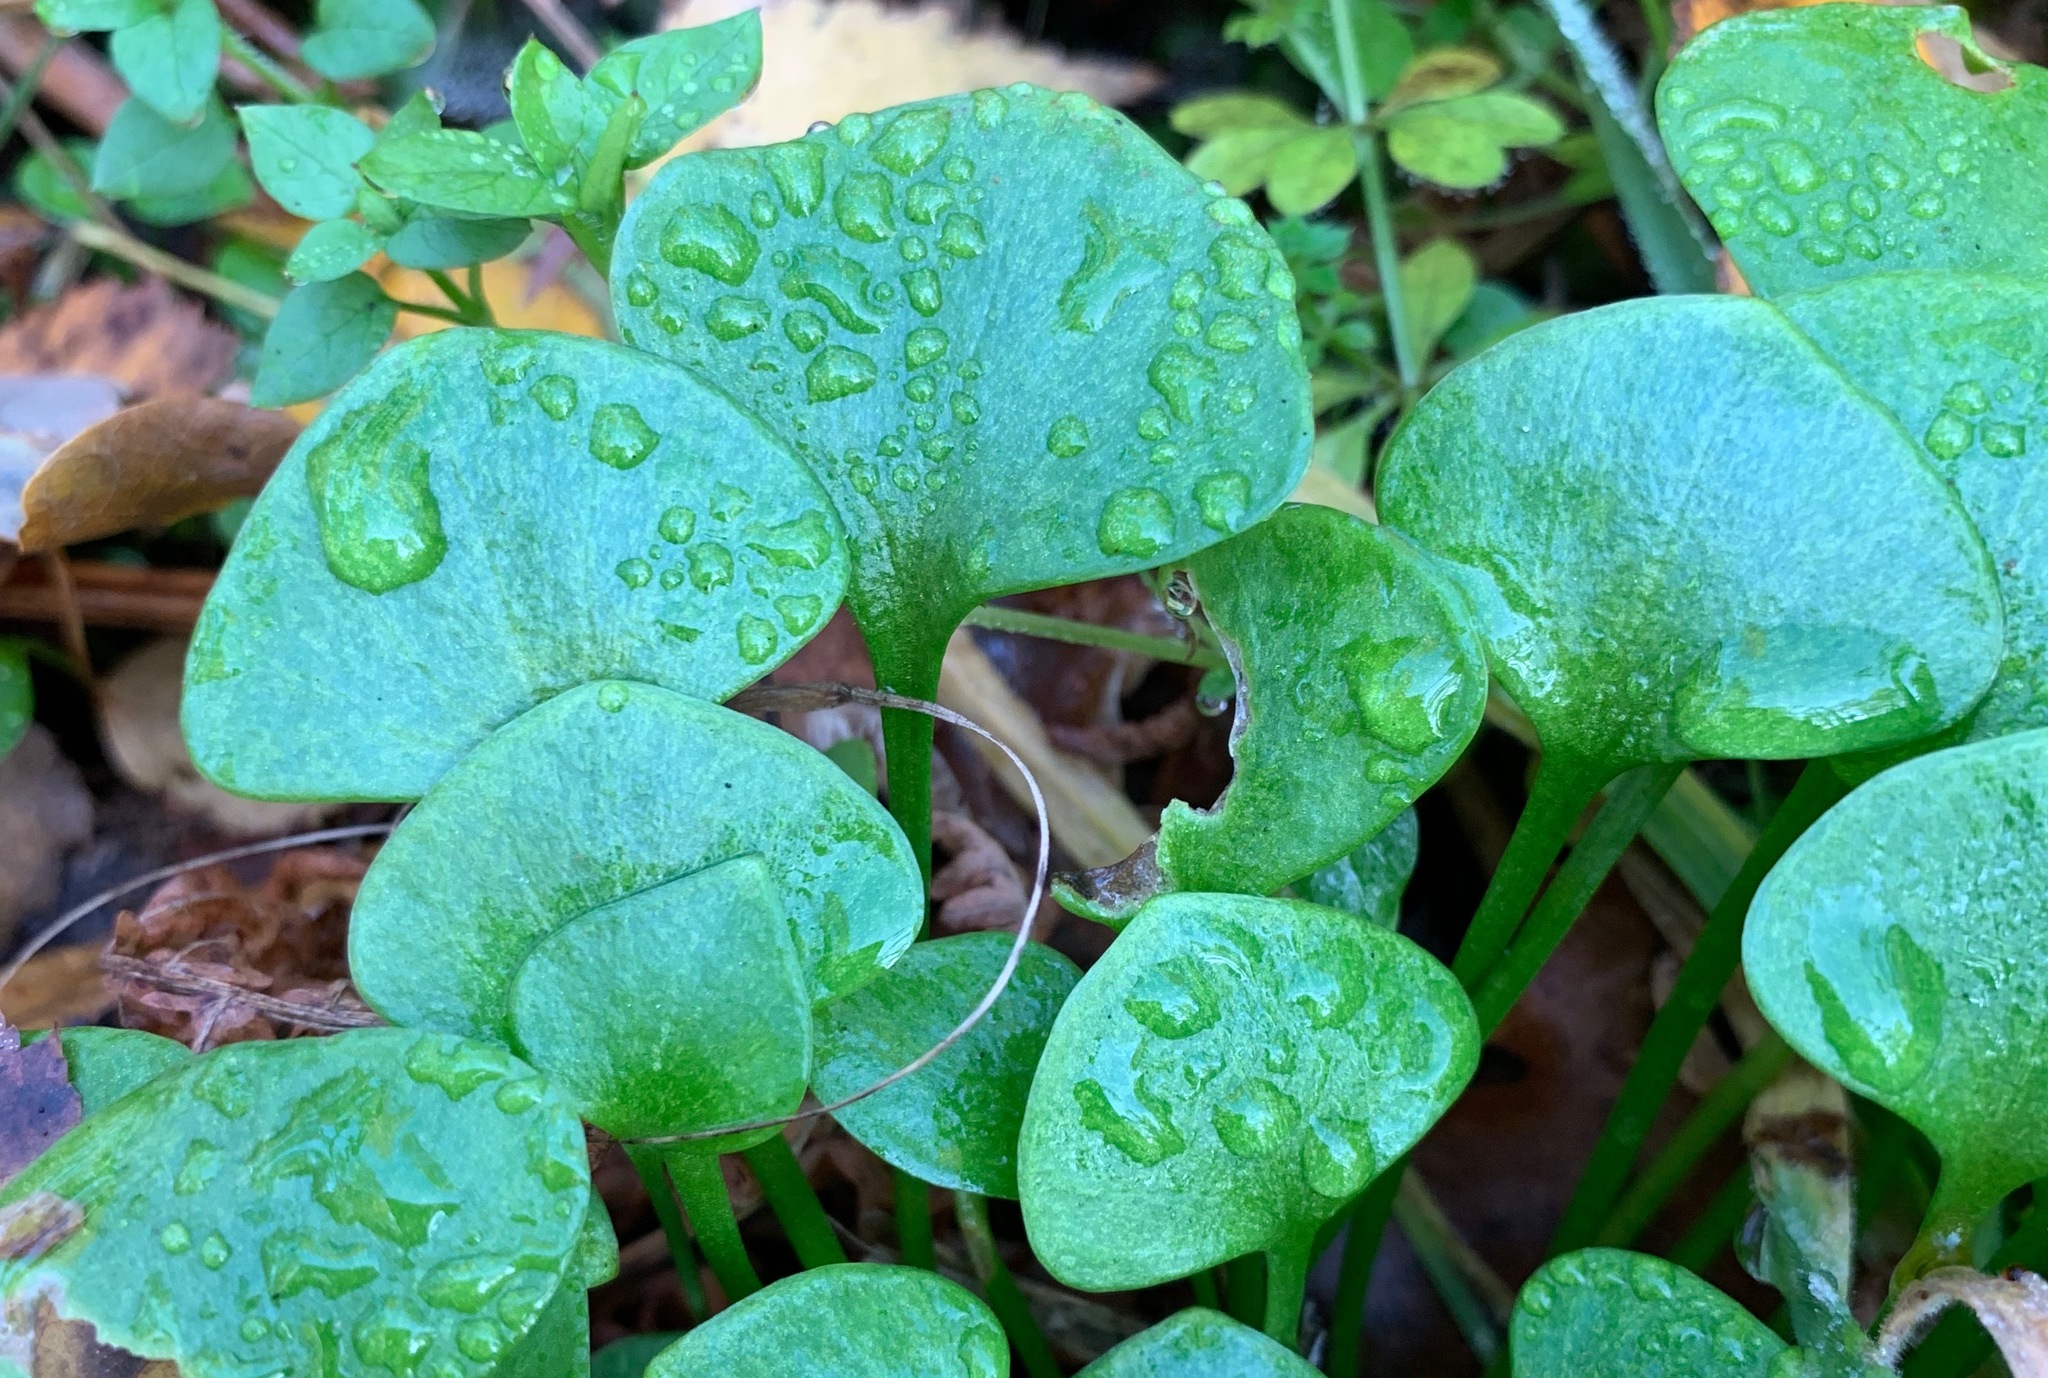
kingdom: Plantae
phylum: Tracheophyta
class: Magnoliopsida
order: Caryophyllales
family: Montiaceae
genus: Claytonia
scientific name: Claytonia perfoliata
